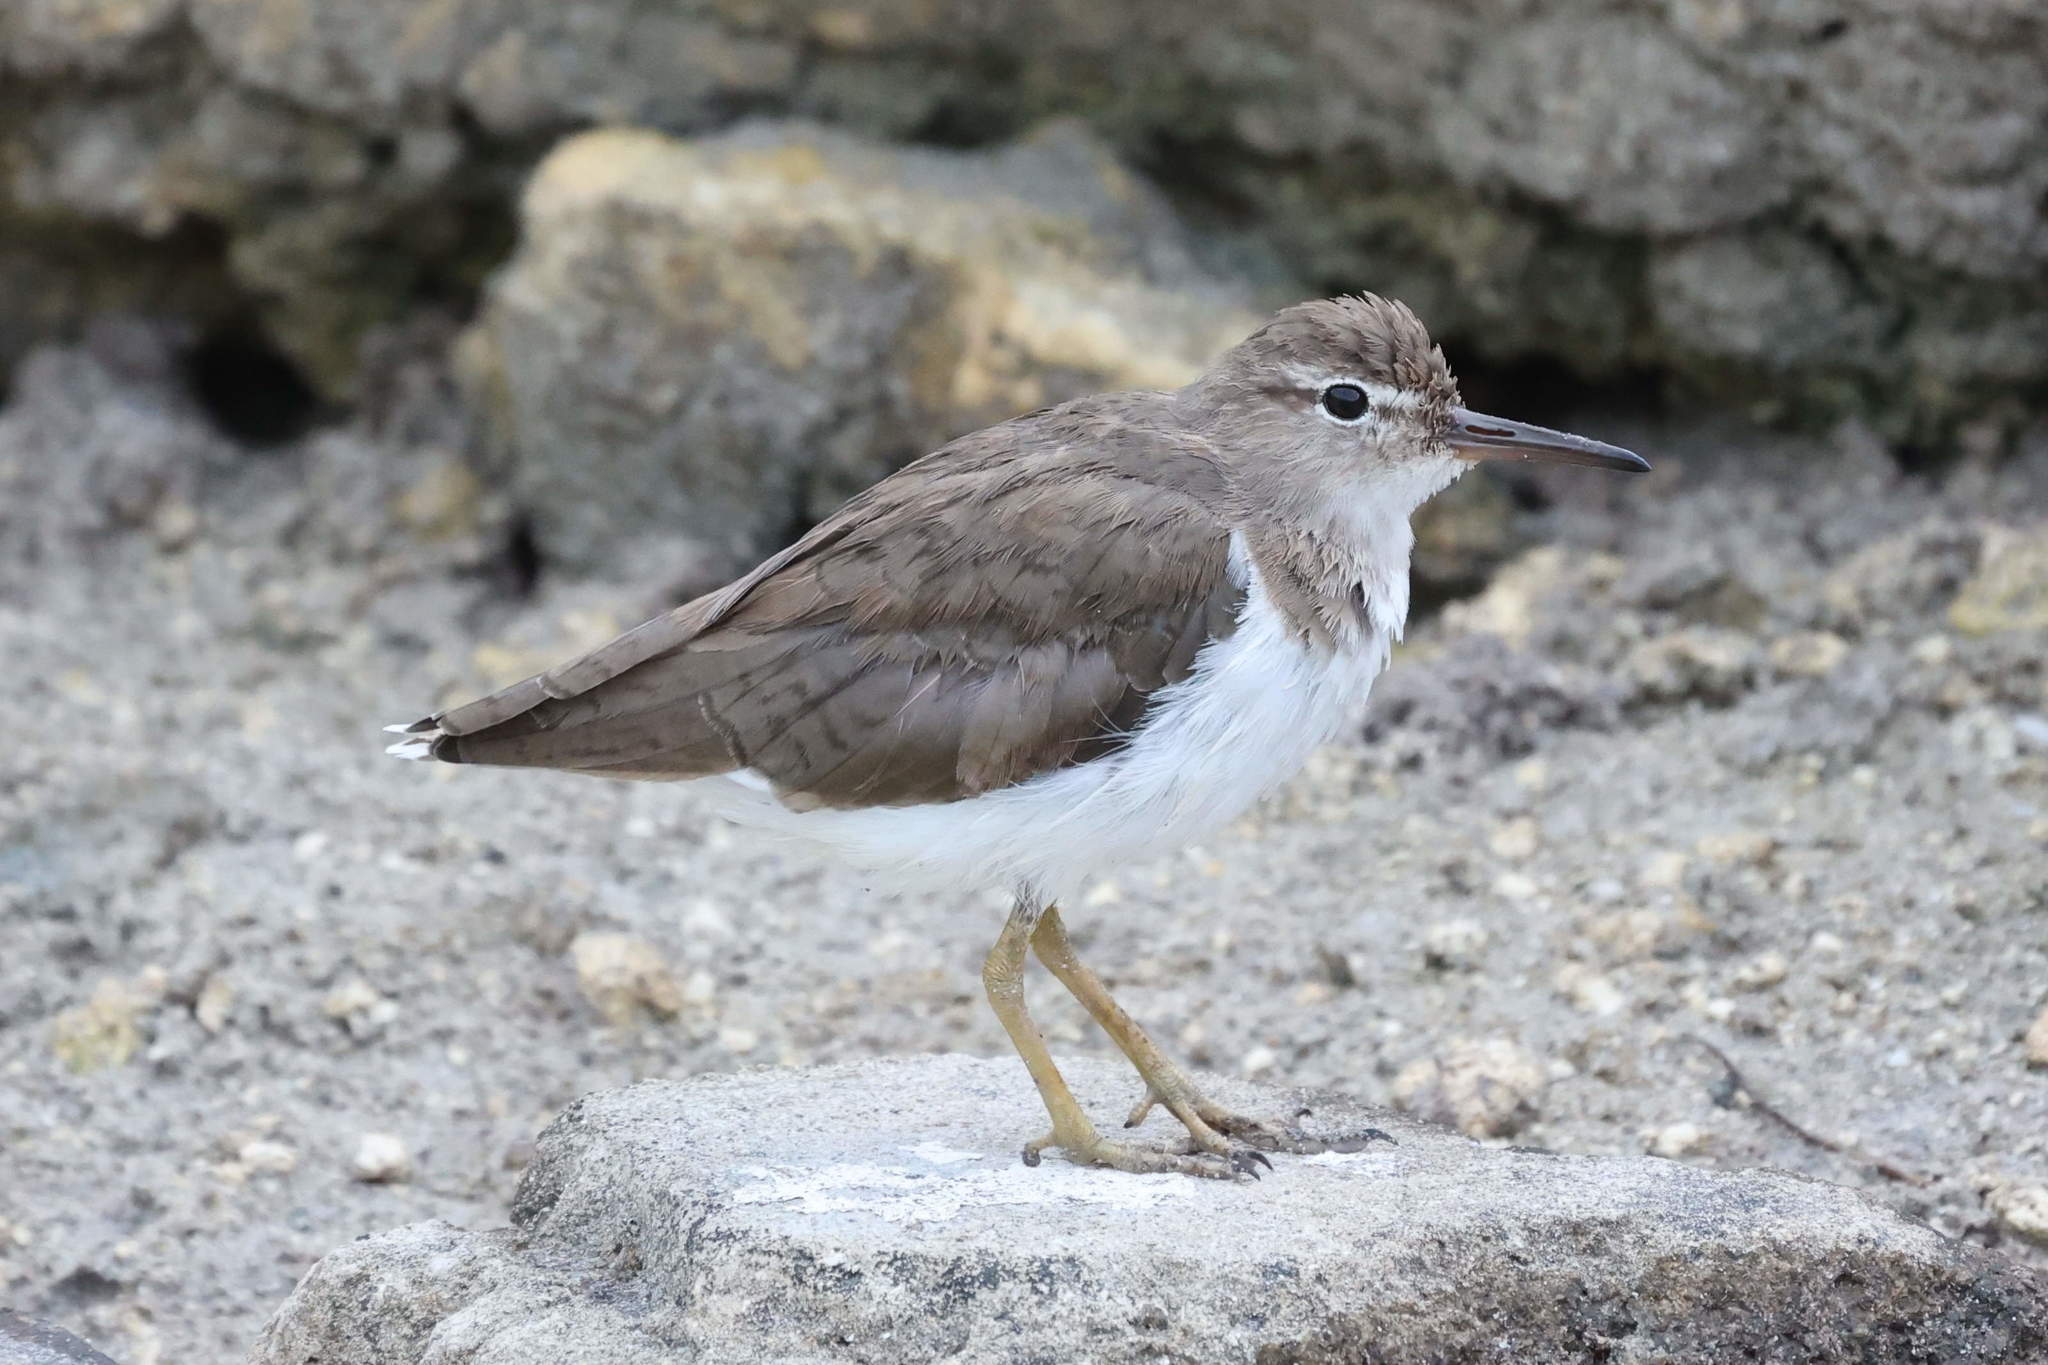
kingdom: Animalia
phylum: Chordata
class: Aves
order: Charadriiformes
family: Scolopacidae
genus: Actitis
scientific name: Actitis macularius
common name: Spotted sandpiper
